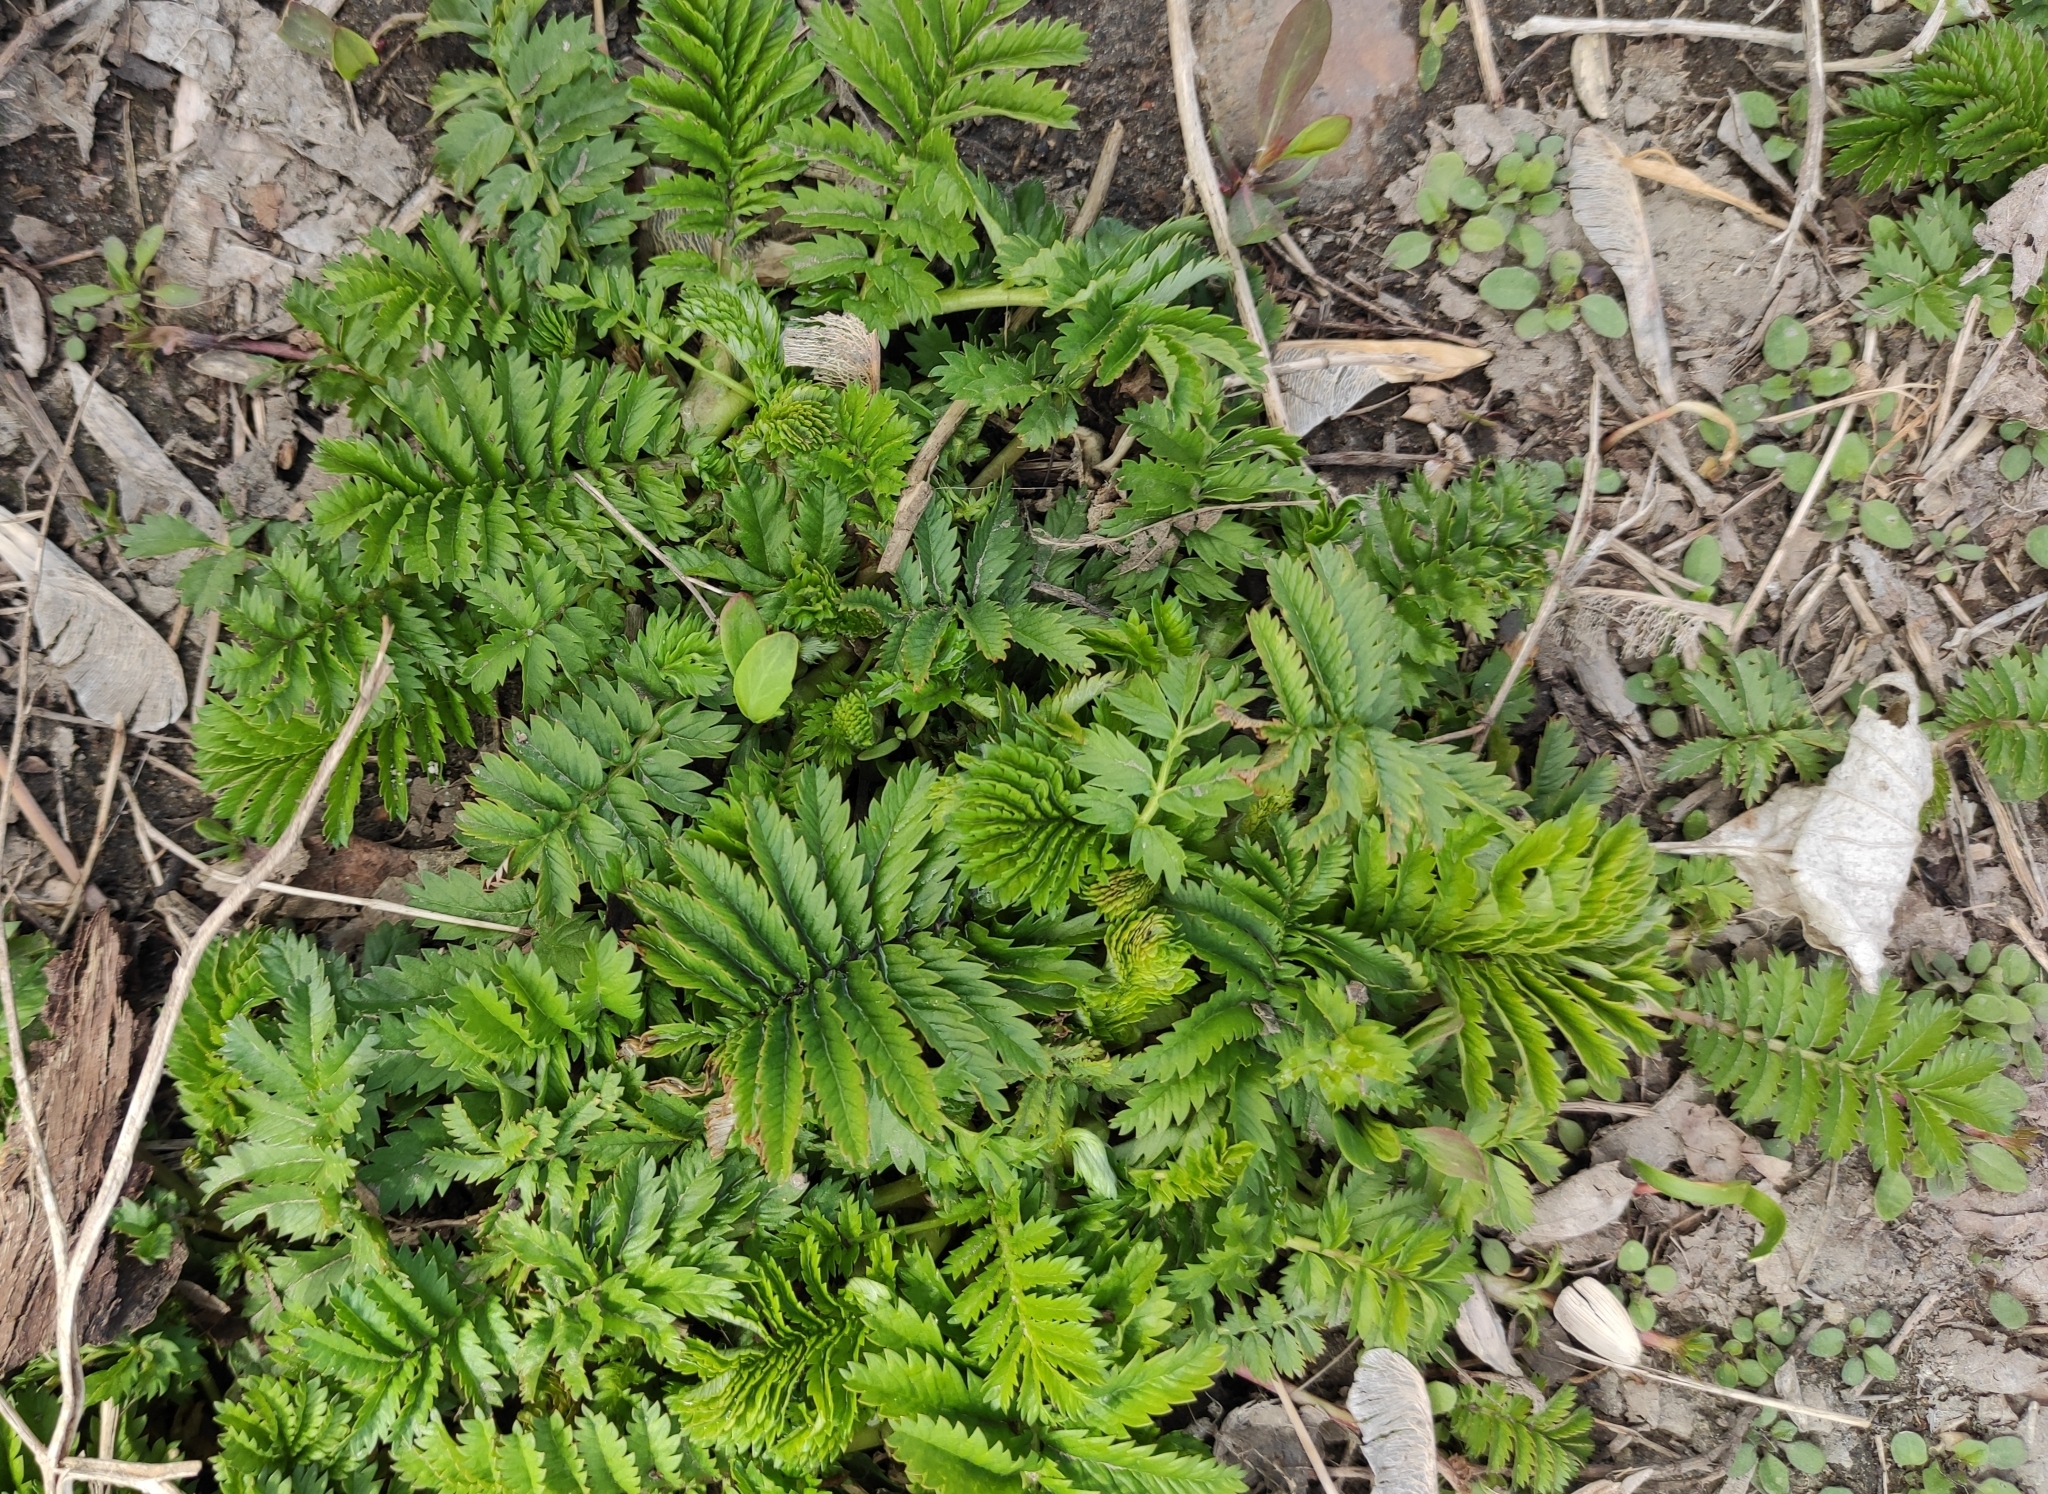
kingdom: Plantae
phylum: Tracheophyta
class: Magnoliopsida
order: Rosales
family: Rosaceae
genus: Argentina
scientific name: Argentina anserina
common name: Common silverweed
